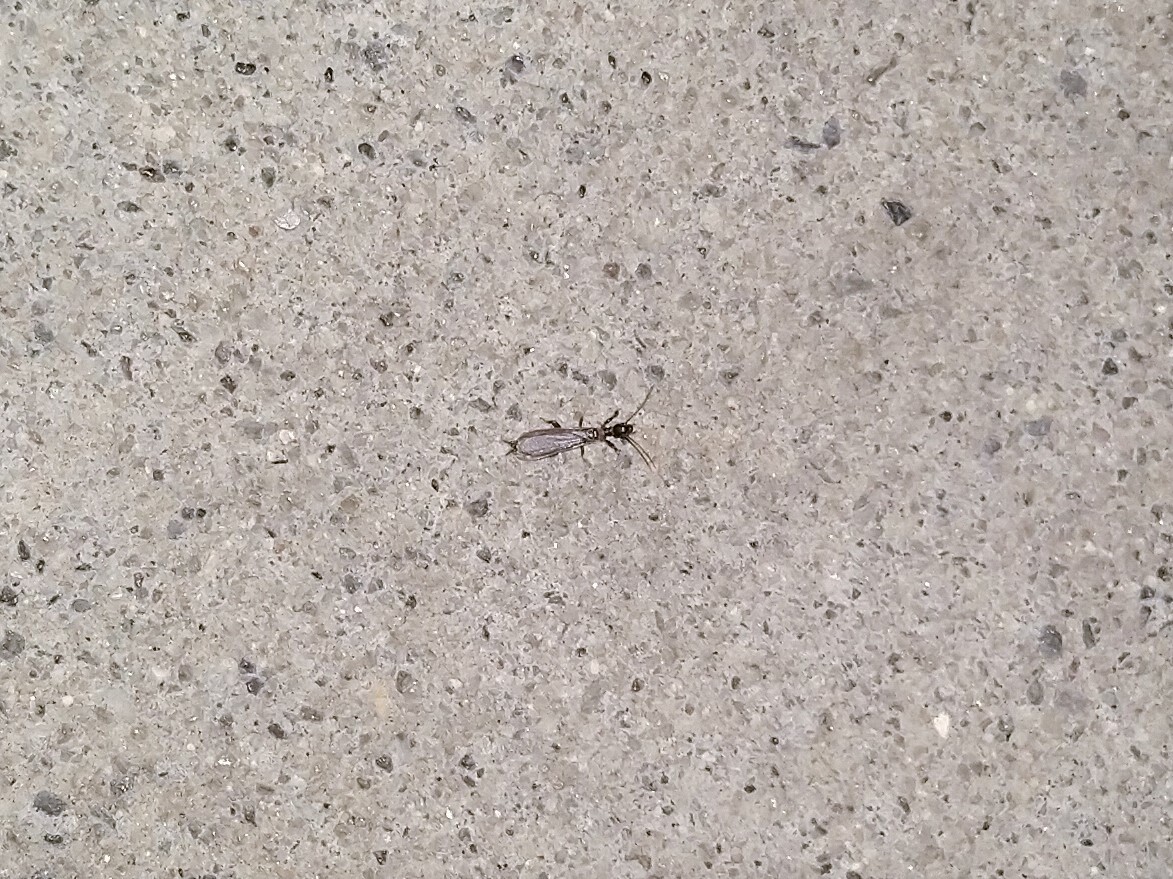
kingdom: Animalia
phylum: Arthropoda
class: Insecta
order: Embioptera
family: Oligotomidae
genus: Oligotoma
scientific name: Oligotoma nigra
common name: Black webspinner
